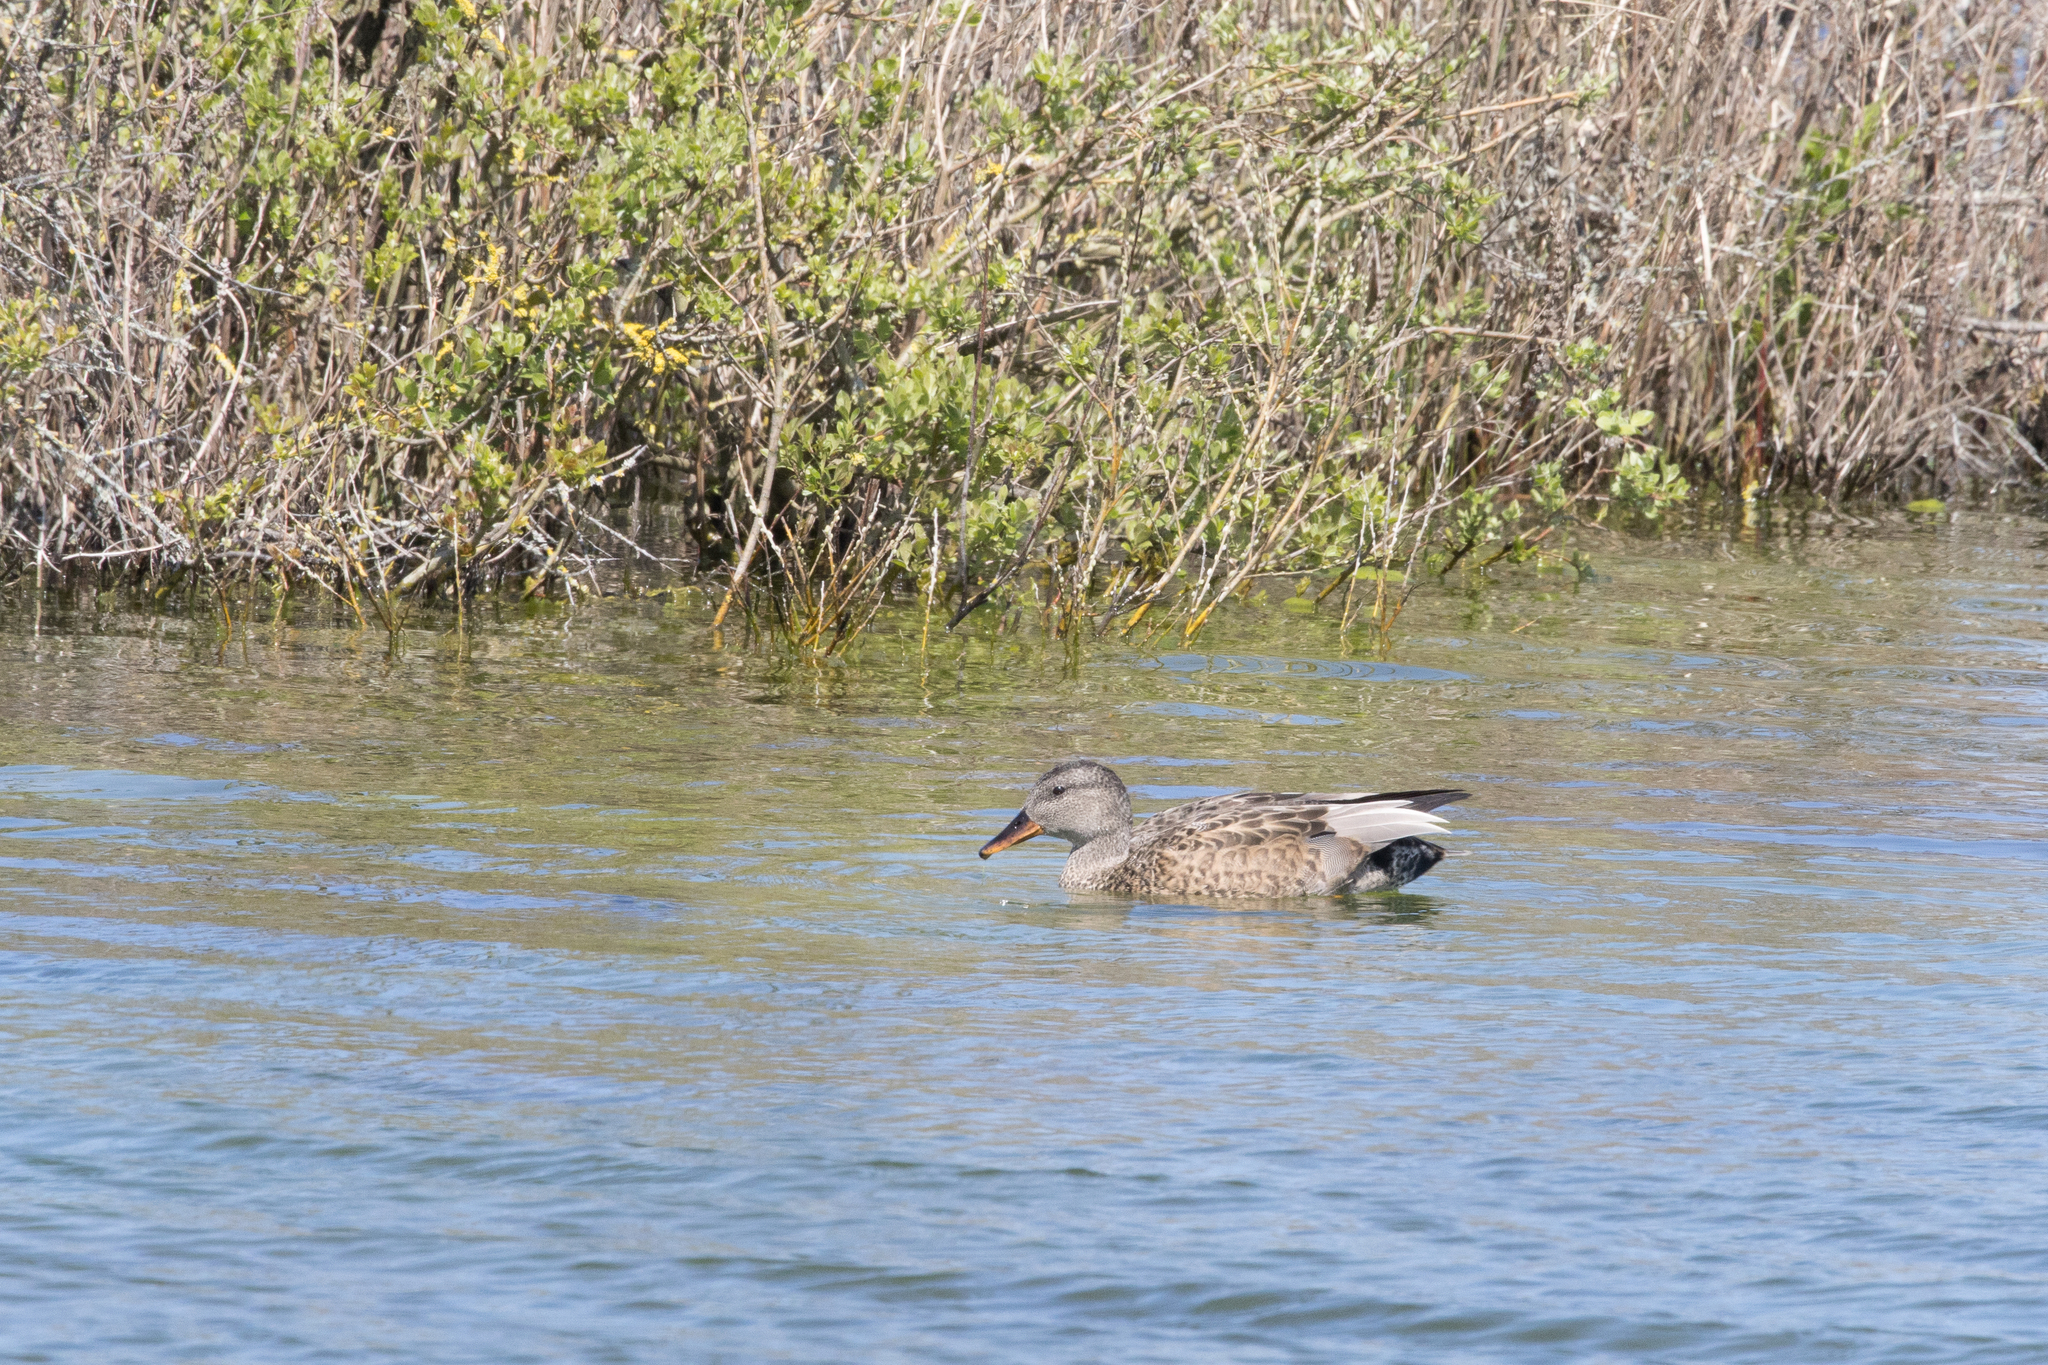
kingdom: Animalia
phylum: Chordata
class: Aves
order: Anseriformes
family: Anatidae
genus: Mareca
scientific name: Mareca strepera
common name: Gadwall
